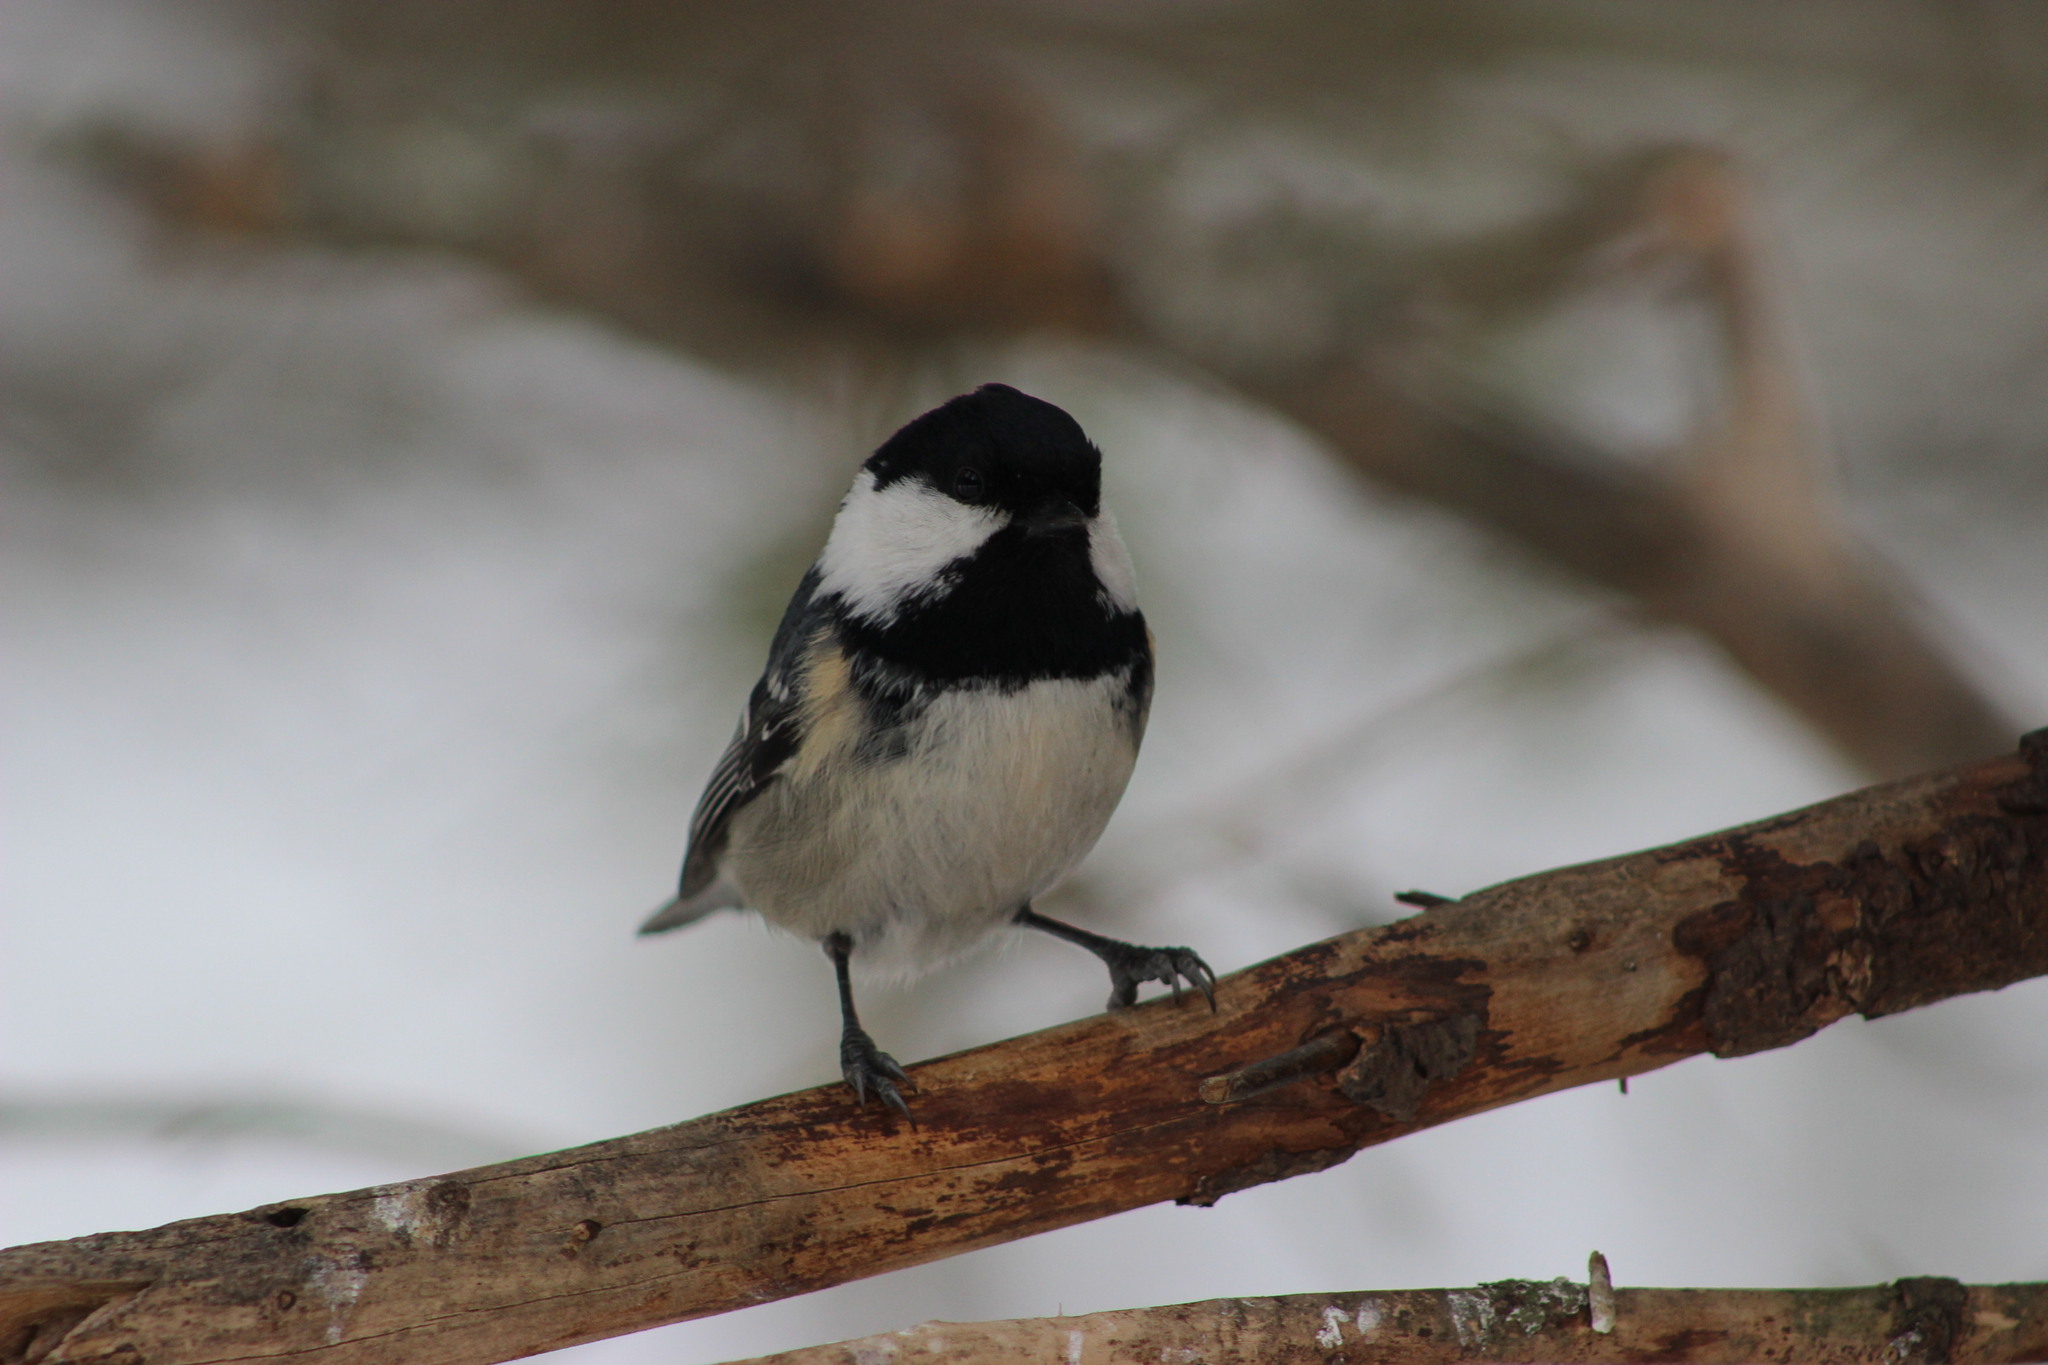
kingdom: Animalia
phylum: Chordata
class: Aves
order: Passeriformes
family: Paridae
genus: Periparus
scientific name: Periparus ater
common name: Coal tit
